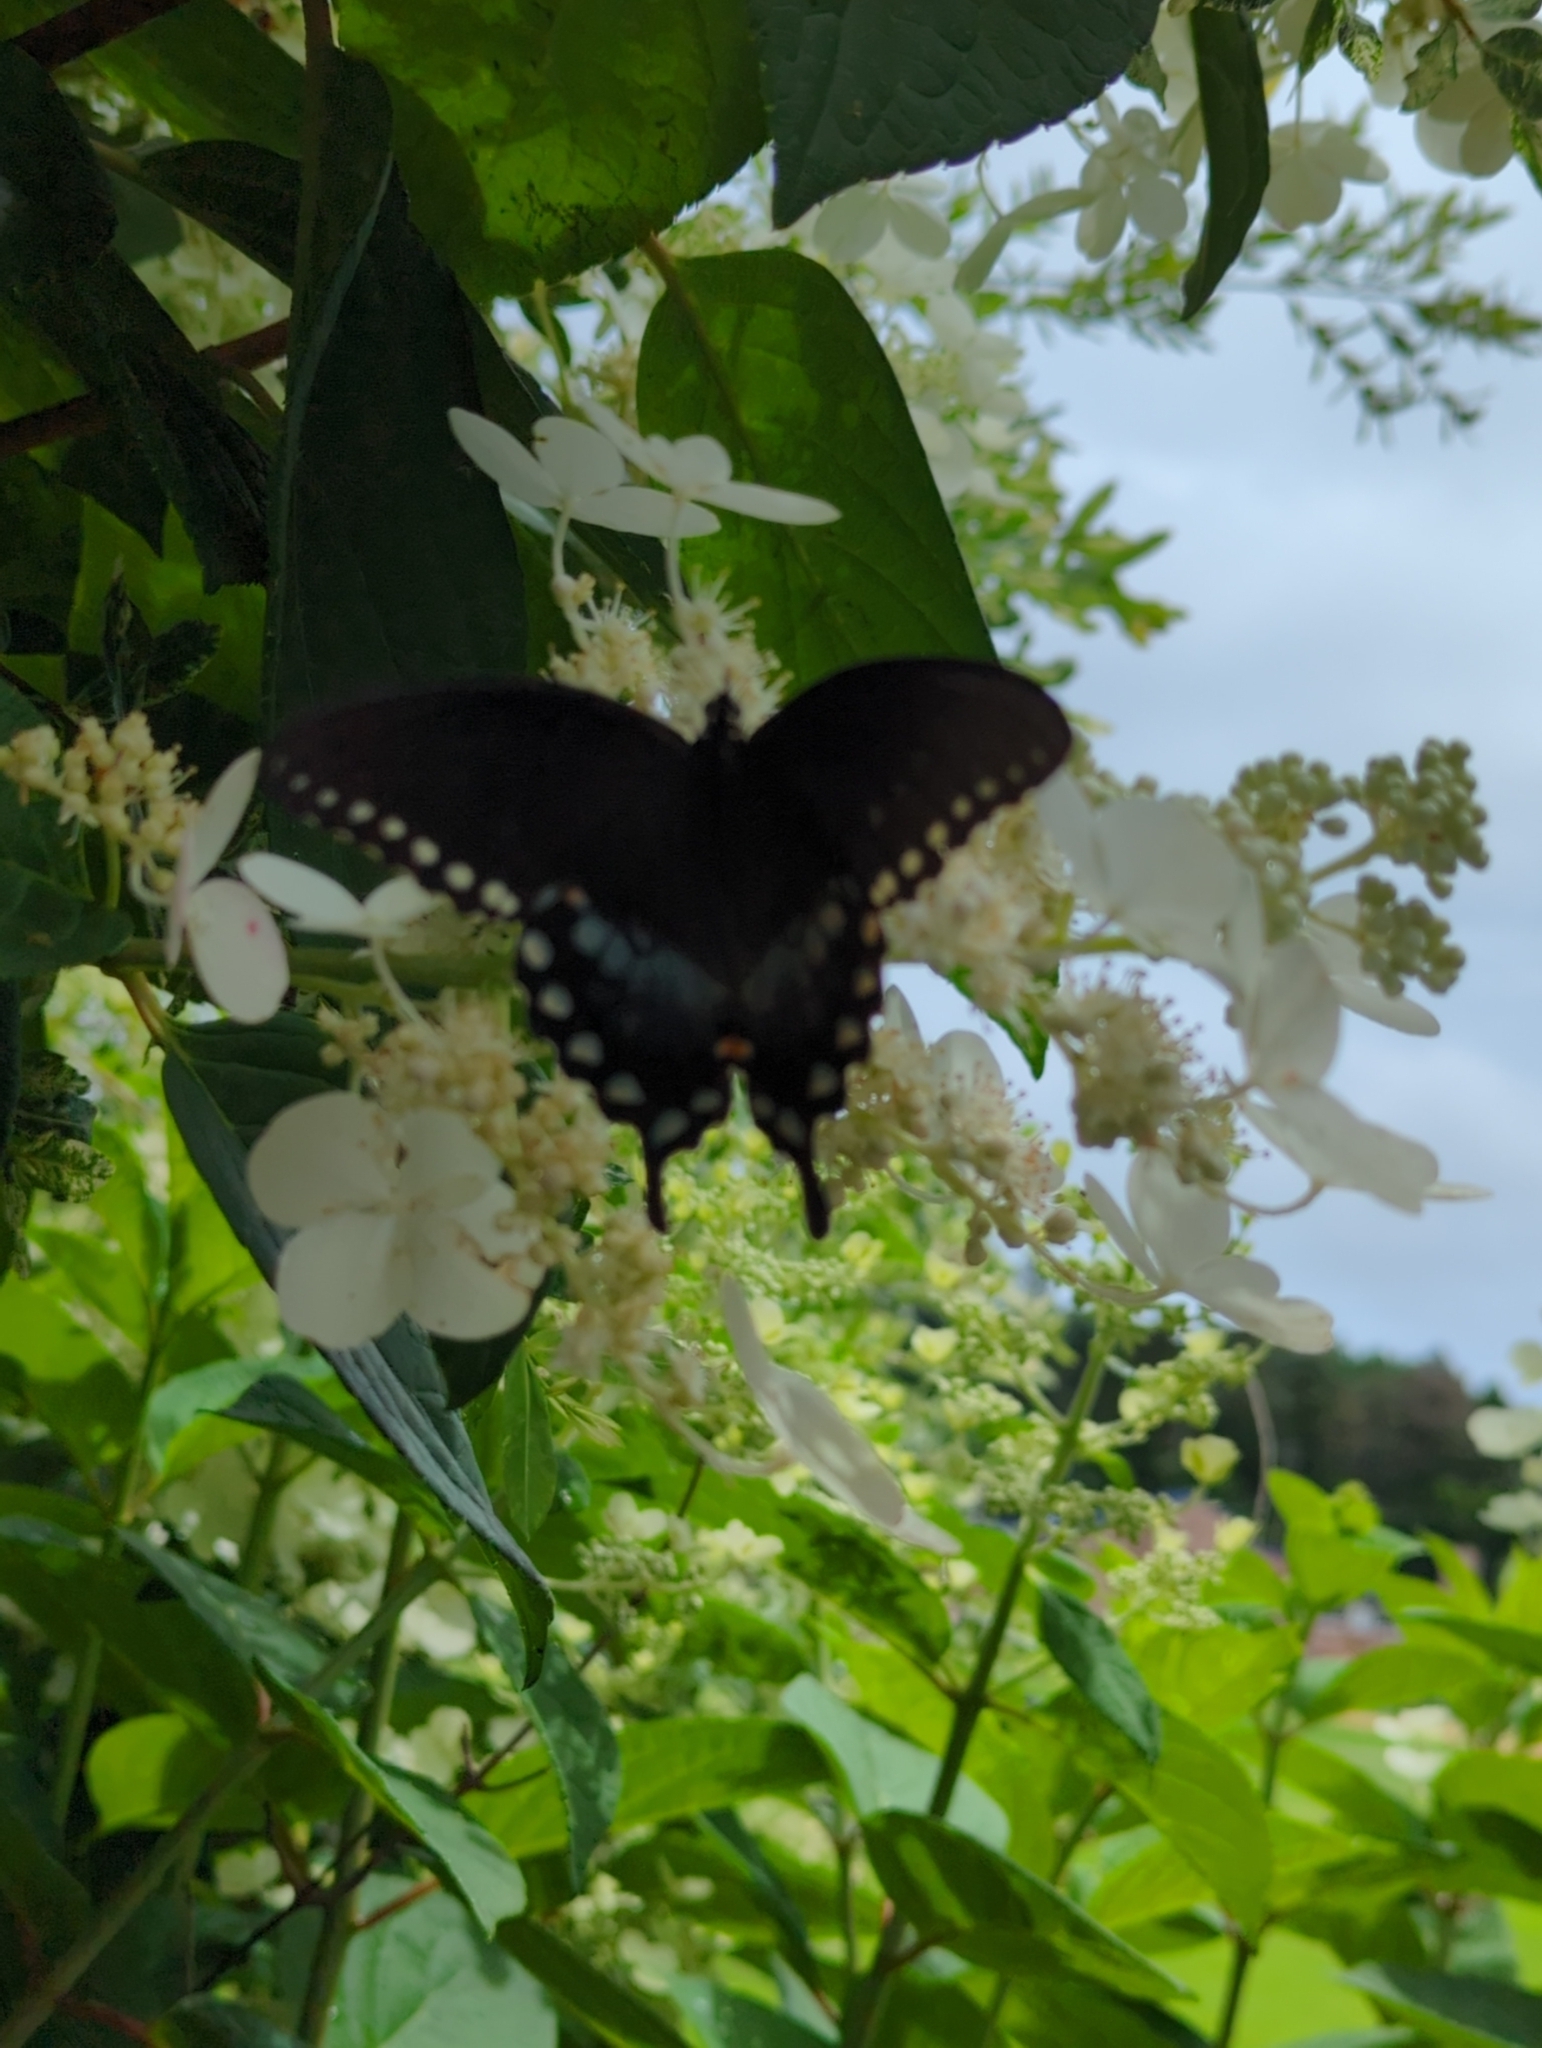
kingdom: Animalia
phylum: Arthropoda
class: Insecta
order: Lepidoptera
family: Papilionidae
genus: Papilio
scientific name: Papilio troilus
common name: Spicebush swallowtail
